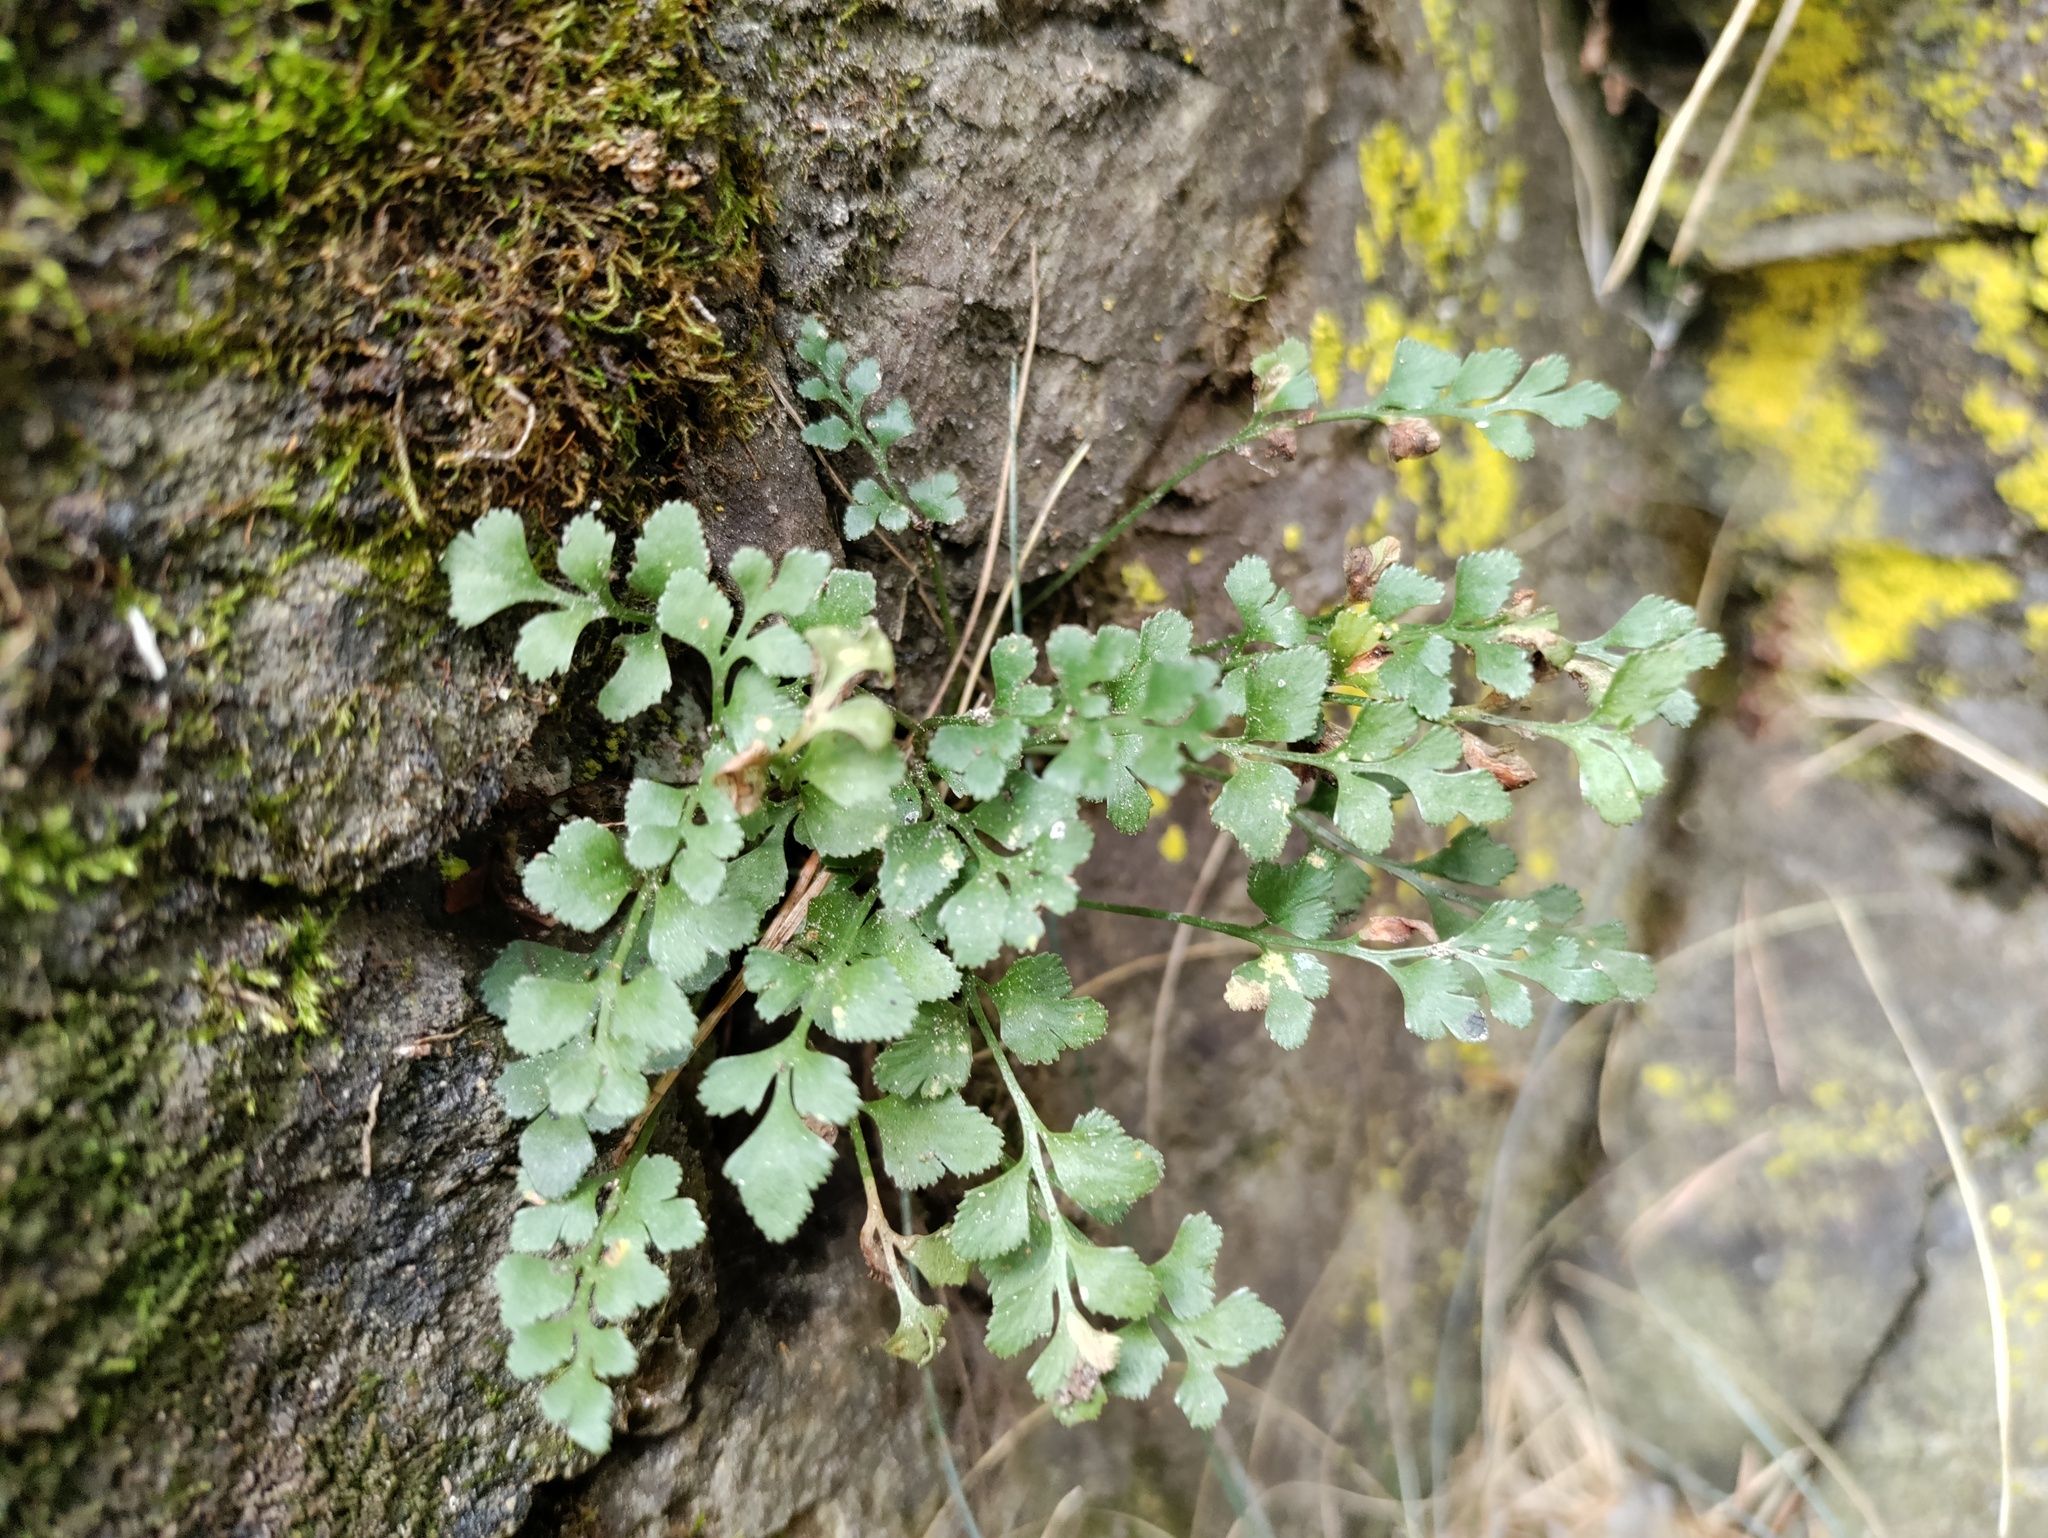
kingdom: Plantae
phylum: Tracheophyta
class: Polypodiopsida
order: Polypodiales
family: Aspleniaceae
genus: Asplenium
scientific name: Asplenium ruta-muraria
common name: Wall-rue
